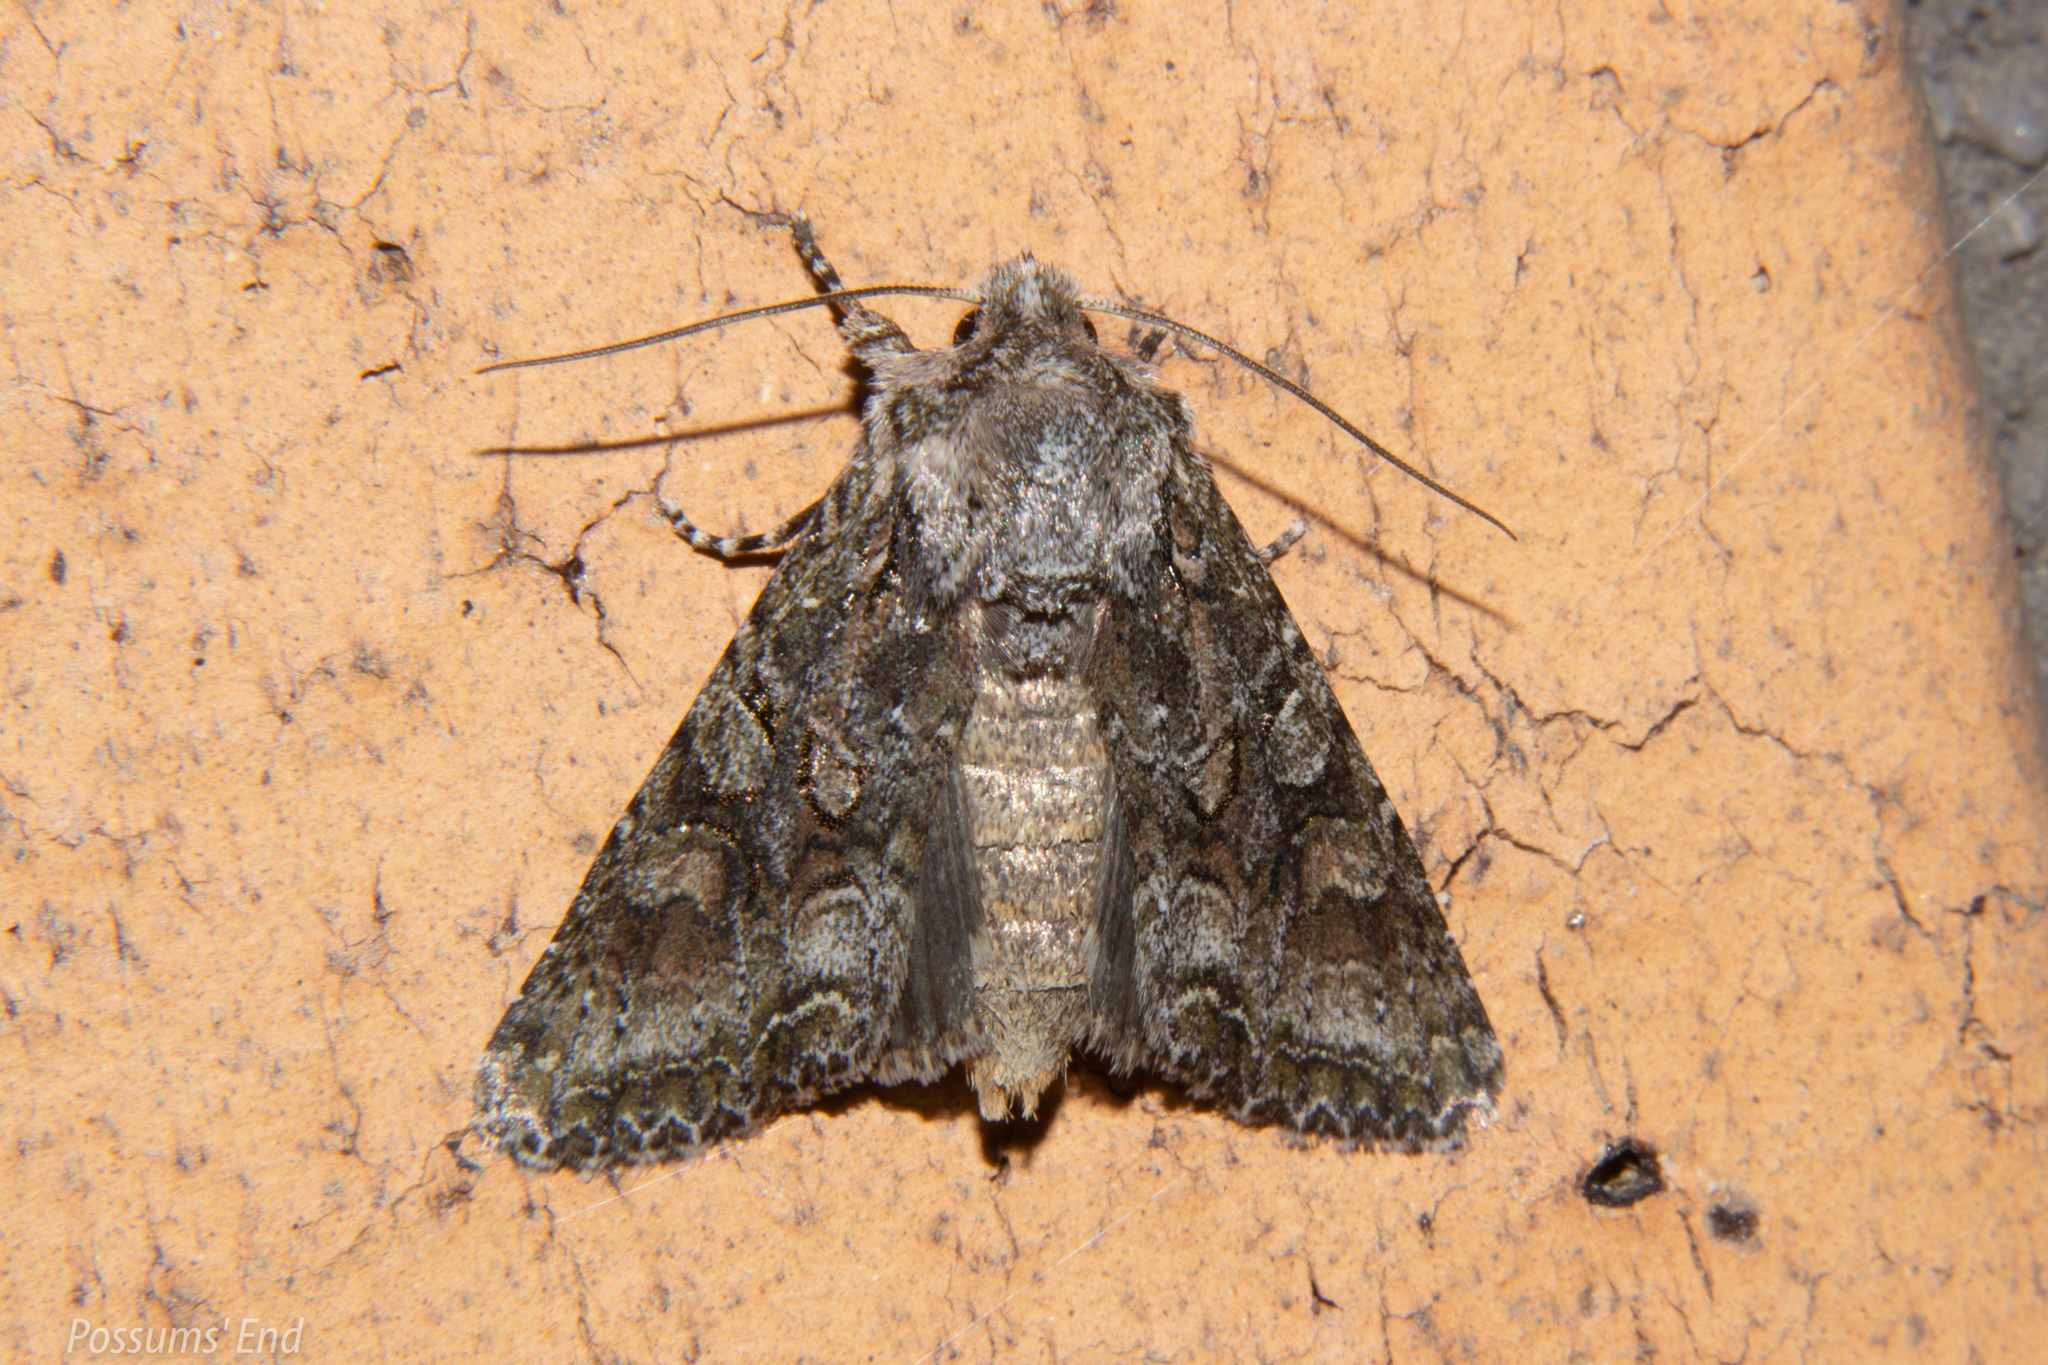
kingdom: Animalia
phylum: Arthropoda
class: Insecta
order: Lepidoptera
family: Noctuidae
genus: Ichneutica
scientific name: Ichneutica mutans
